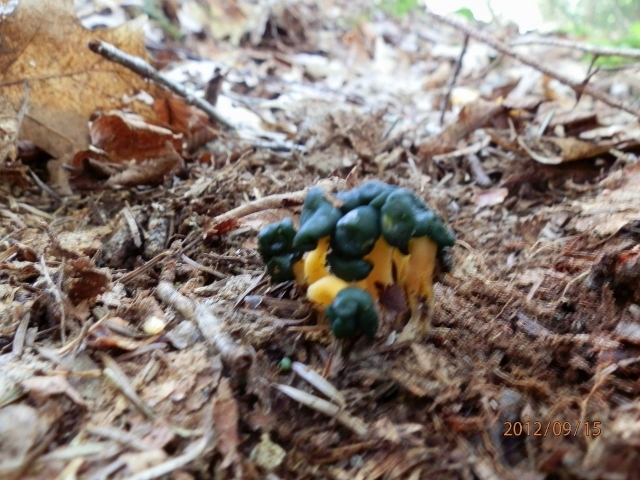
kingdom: Fungi
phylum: Ascomycota
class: Leotiomycetes
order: Leotiales
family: Leotiaceae
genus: Leotia
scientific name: Leotia lubrica
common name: Jellybaby
